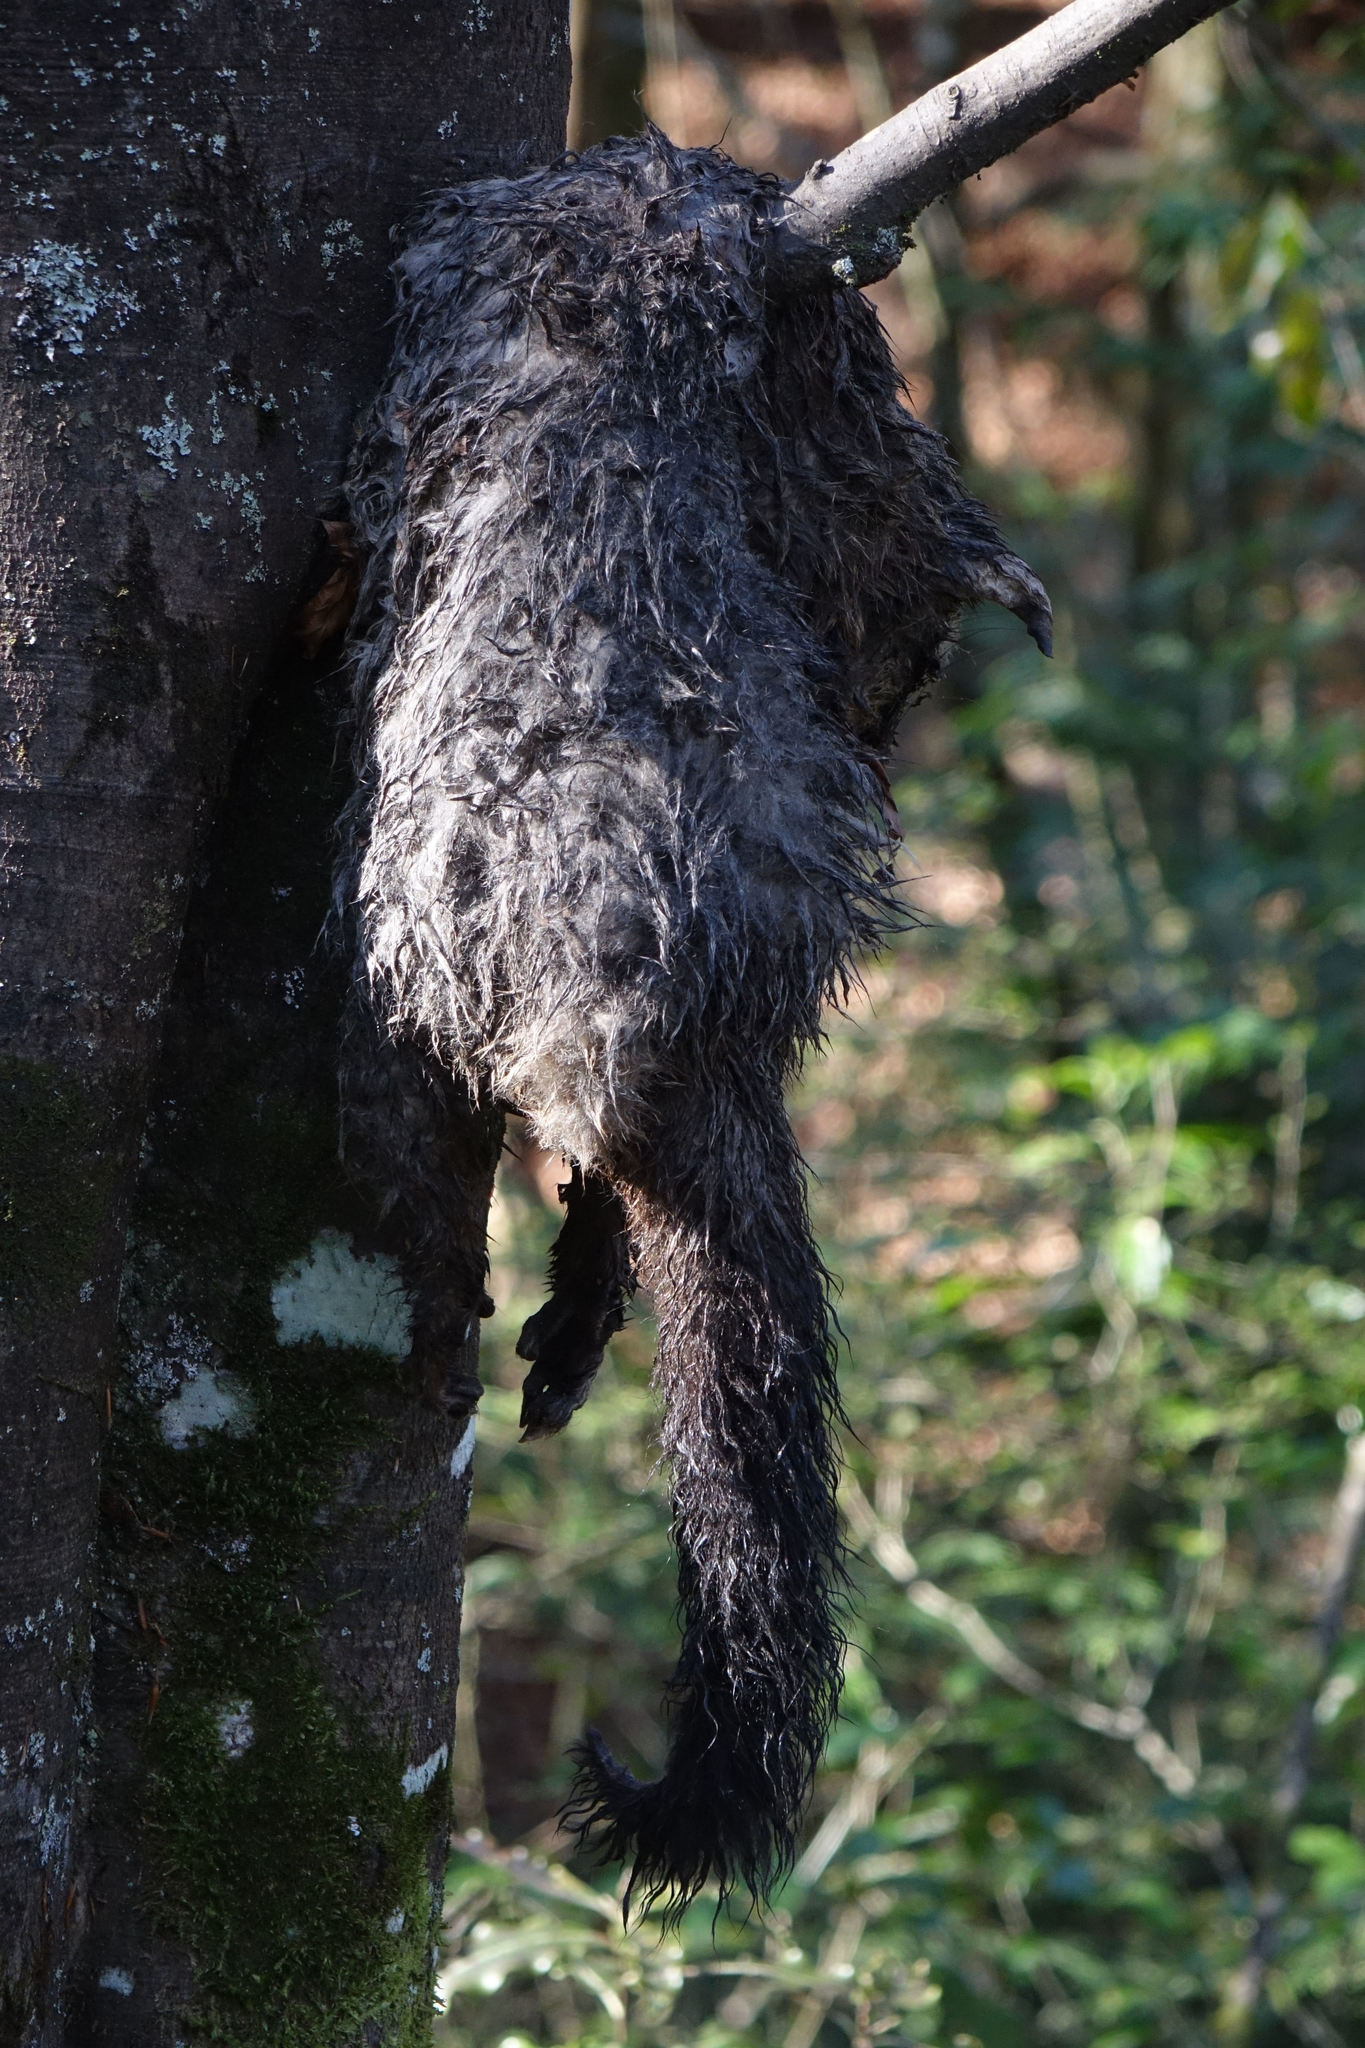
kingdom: Animalia
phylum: Chordata
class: Mammalia
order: Diprotodontia
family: Phalangeridae
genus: Trichosurus
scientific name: Trichosurus vulpecula
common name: Common brushtail
